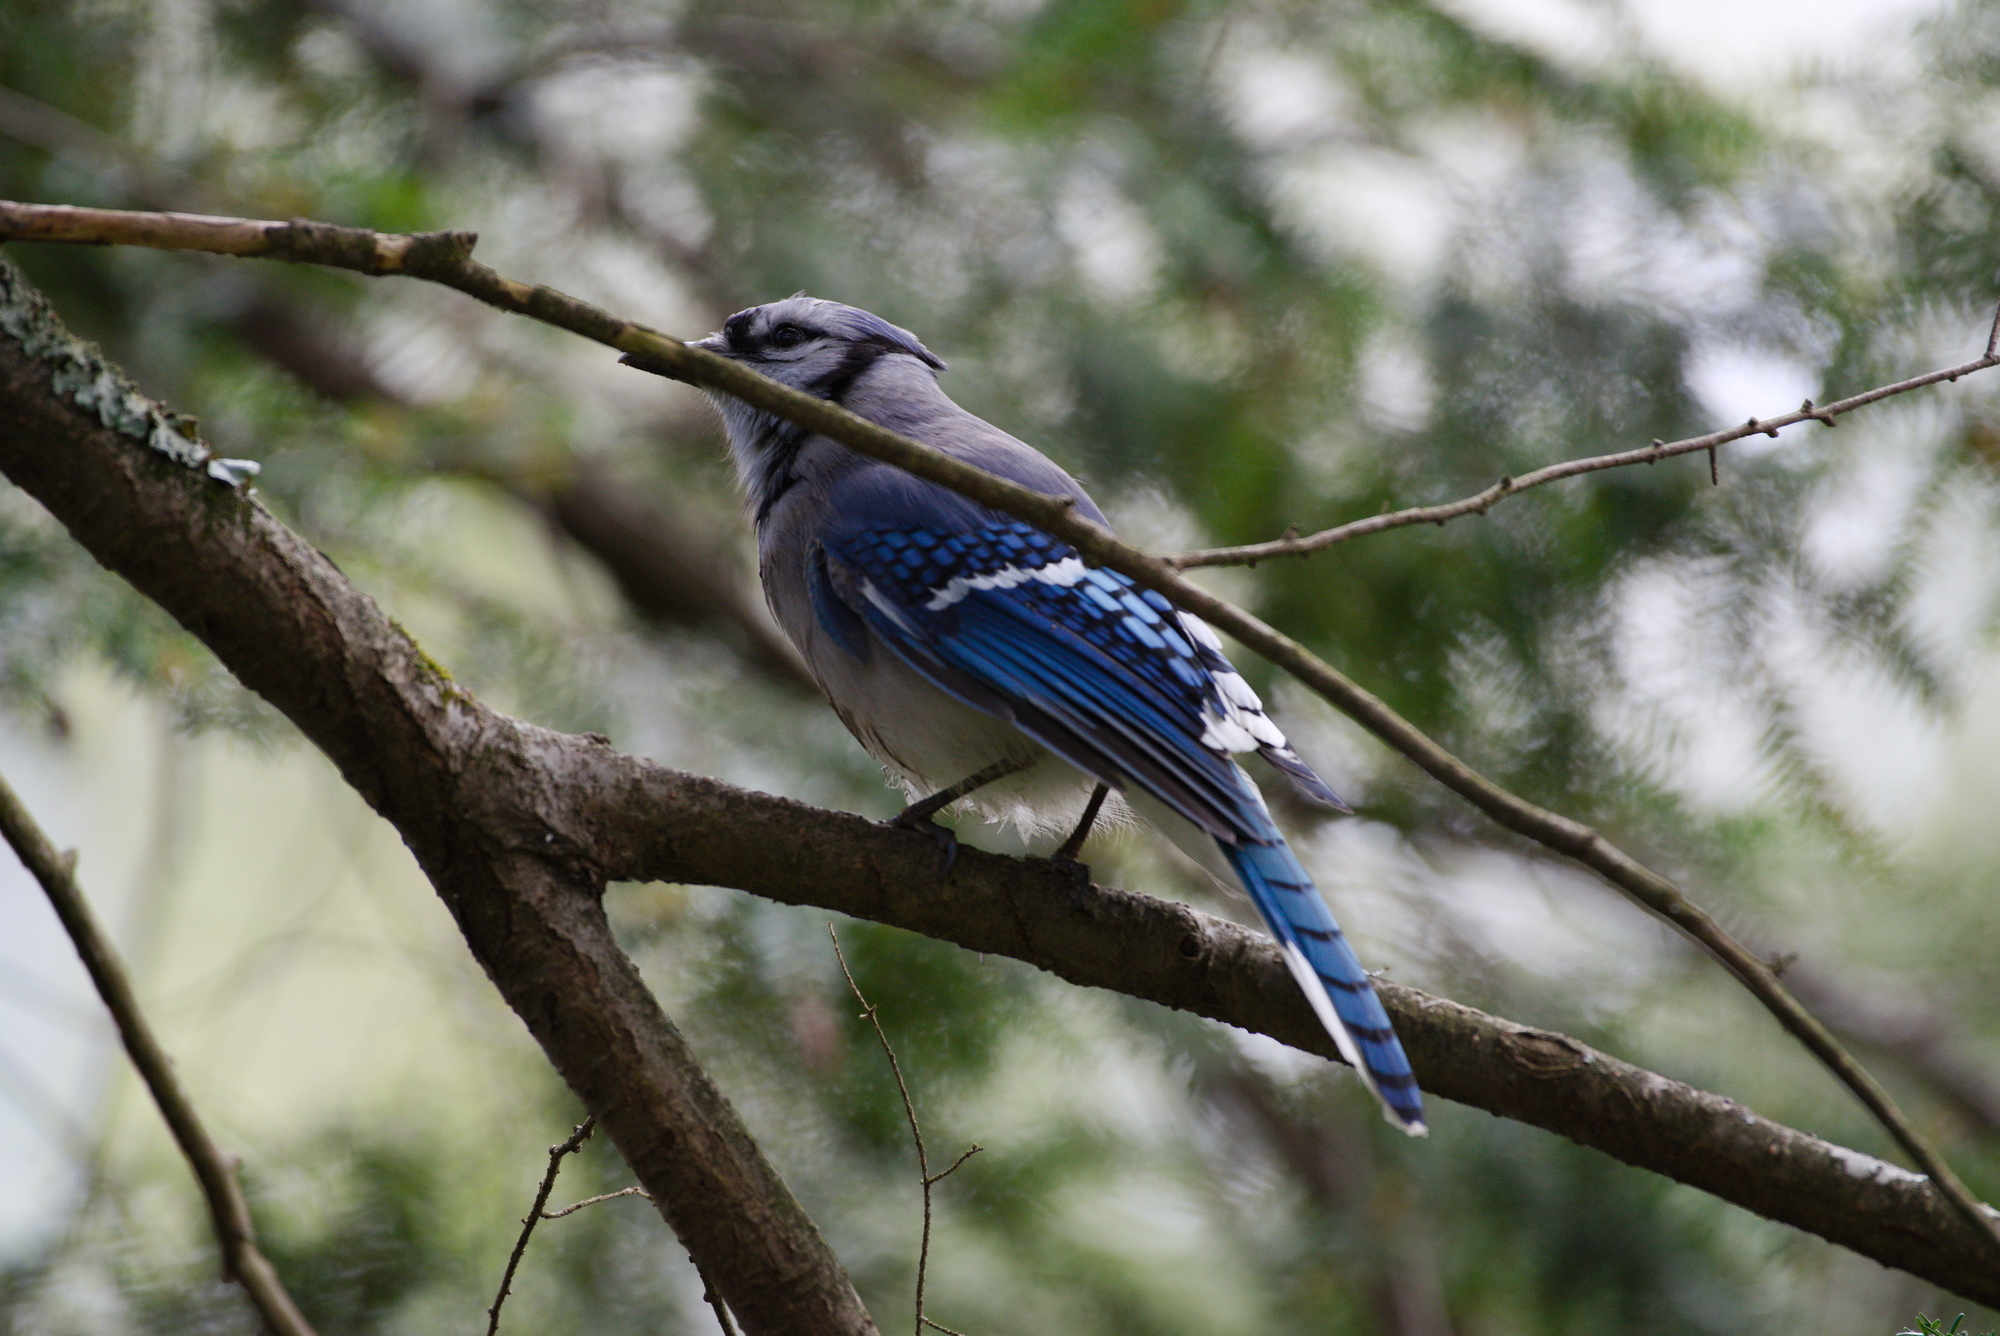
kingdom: Animalia
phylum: Chordata
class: Aves
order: Passeriformes
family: Corvidae
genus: Cyanocitta
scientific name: Cyanocitta cristata
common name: Blue jay
